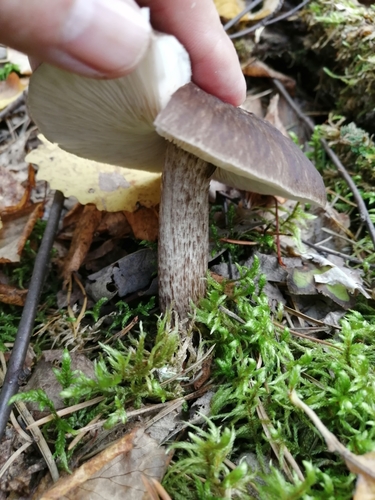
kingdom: Fungi
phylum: Basidiomycota
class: Agaricomycetes
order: Agaricales
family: Pluteaceae
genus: Pluteus
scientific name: Pluteus cervinus
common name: Deer shield
